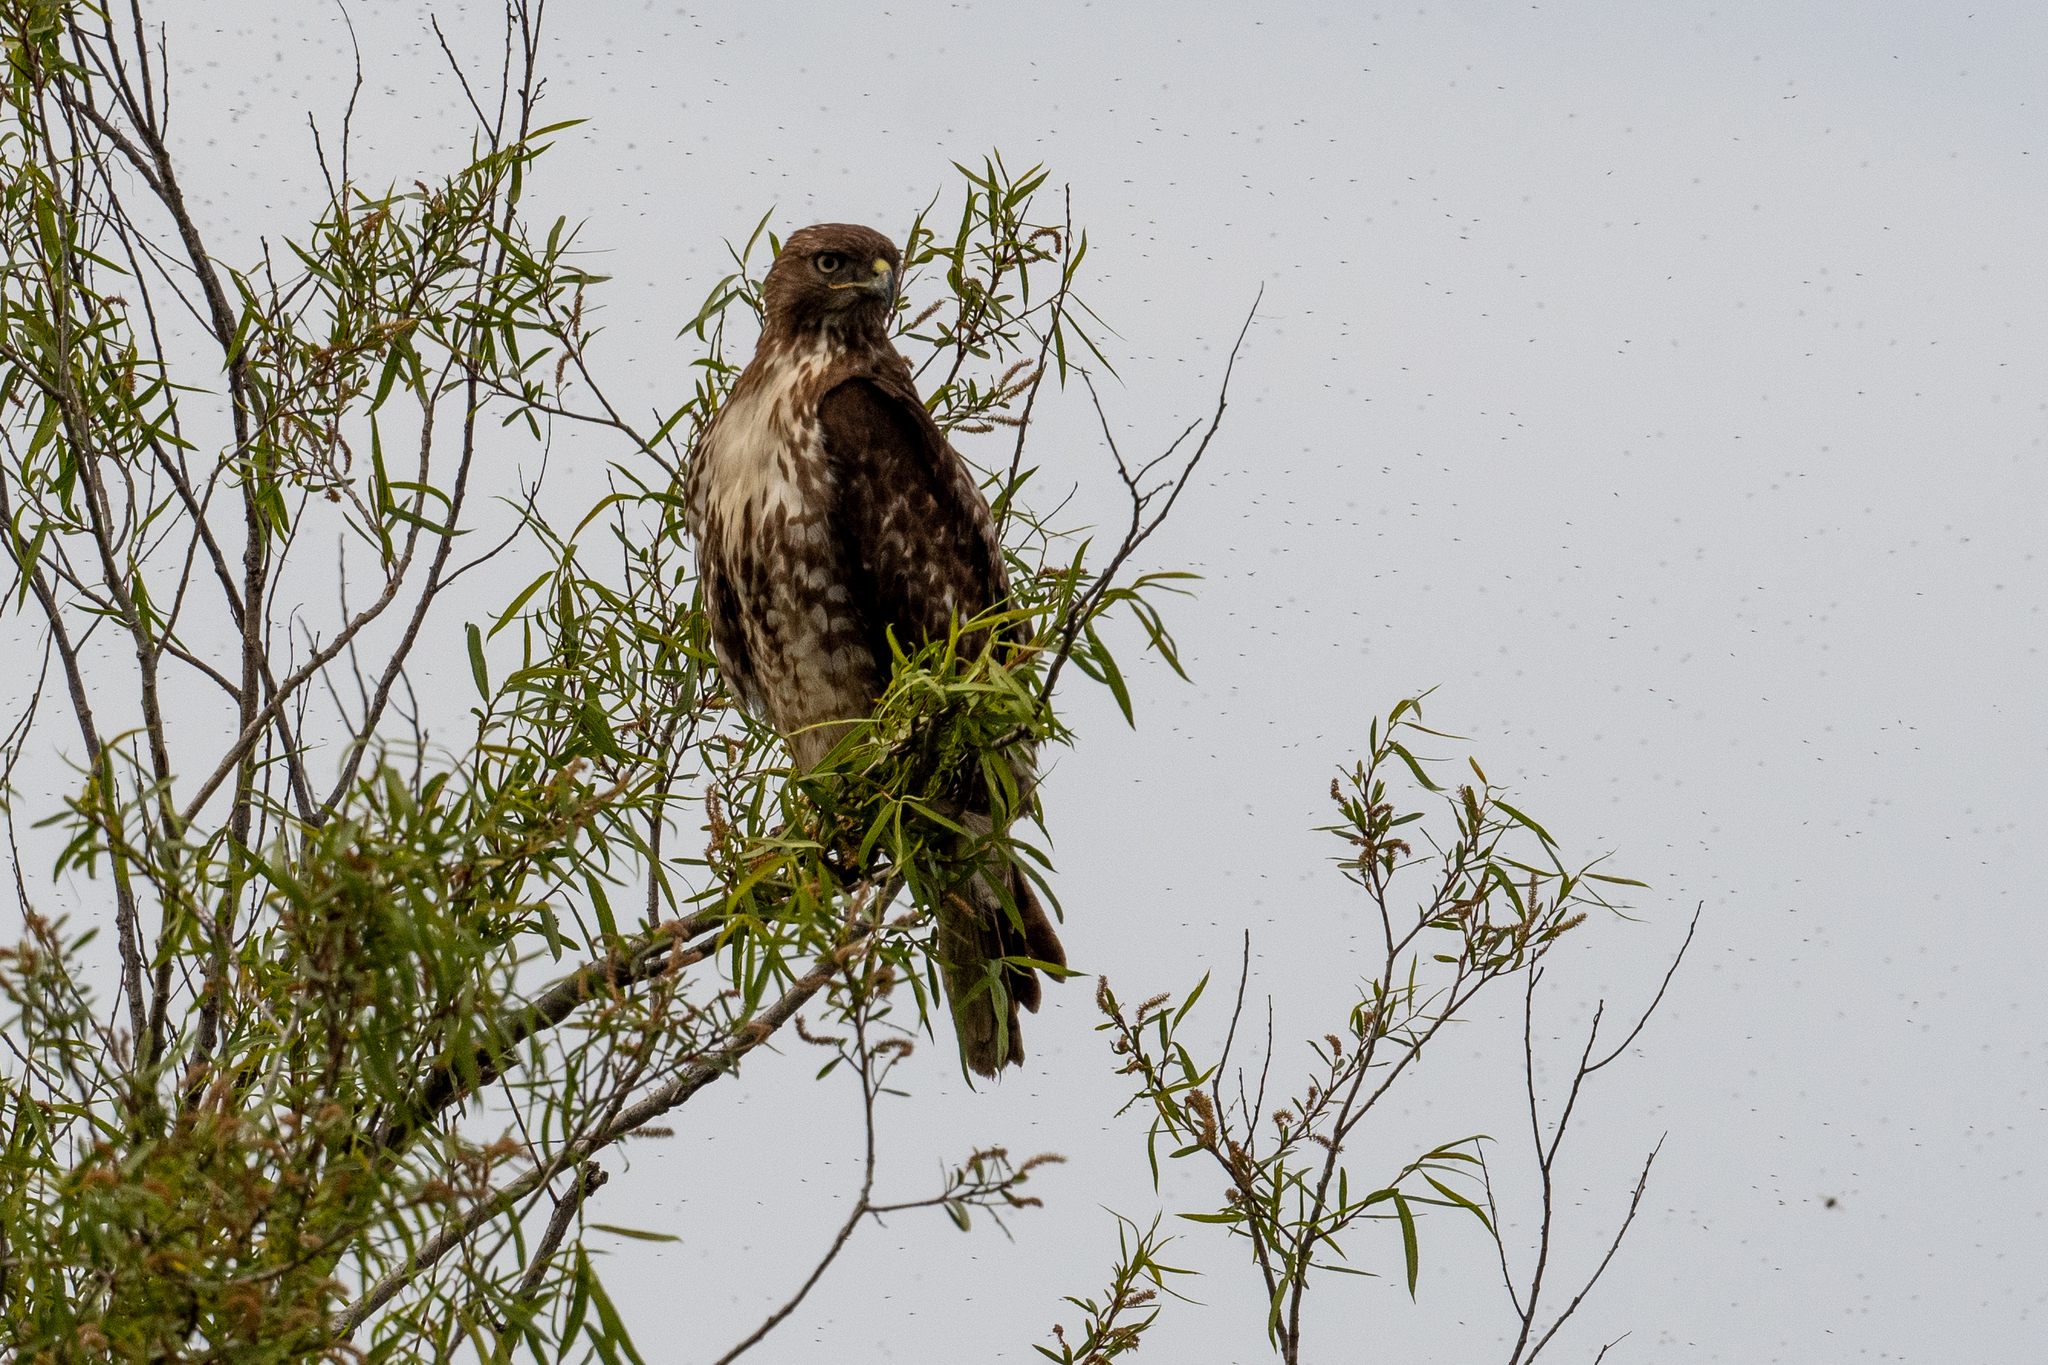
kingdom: Animalia
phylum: Chordata
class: Aves
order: Accipitriformes
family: Accipitridae
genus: Buteo
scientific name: Buteo jamaicensis
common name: Red-tailed hawk
